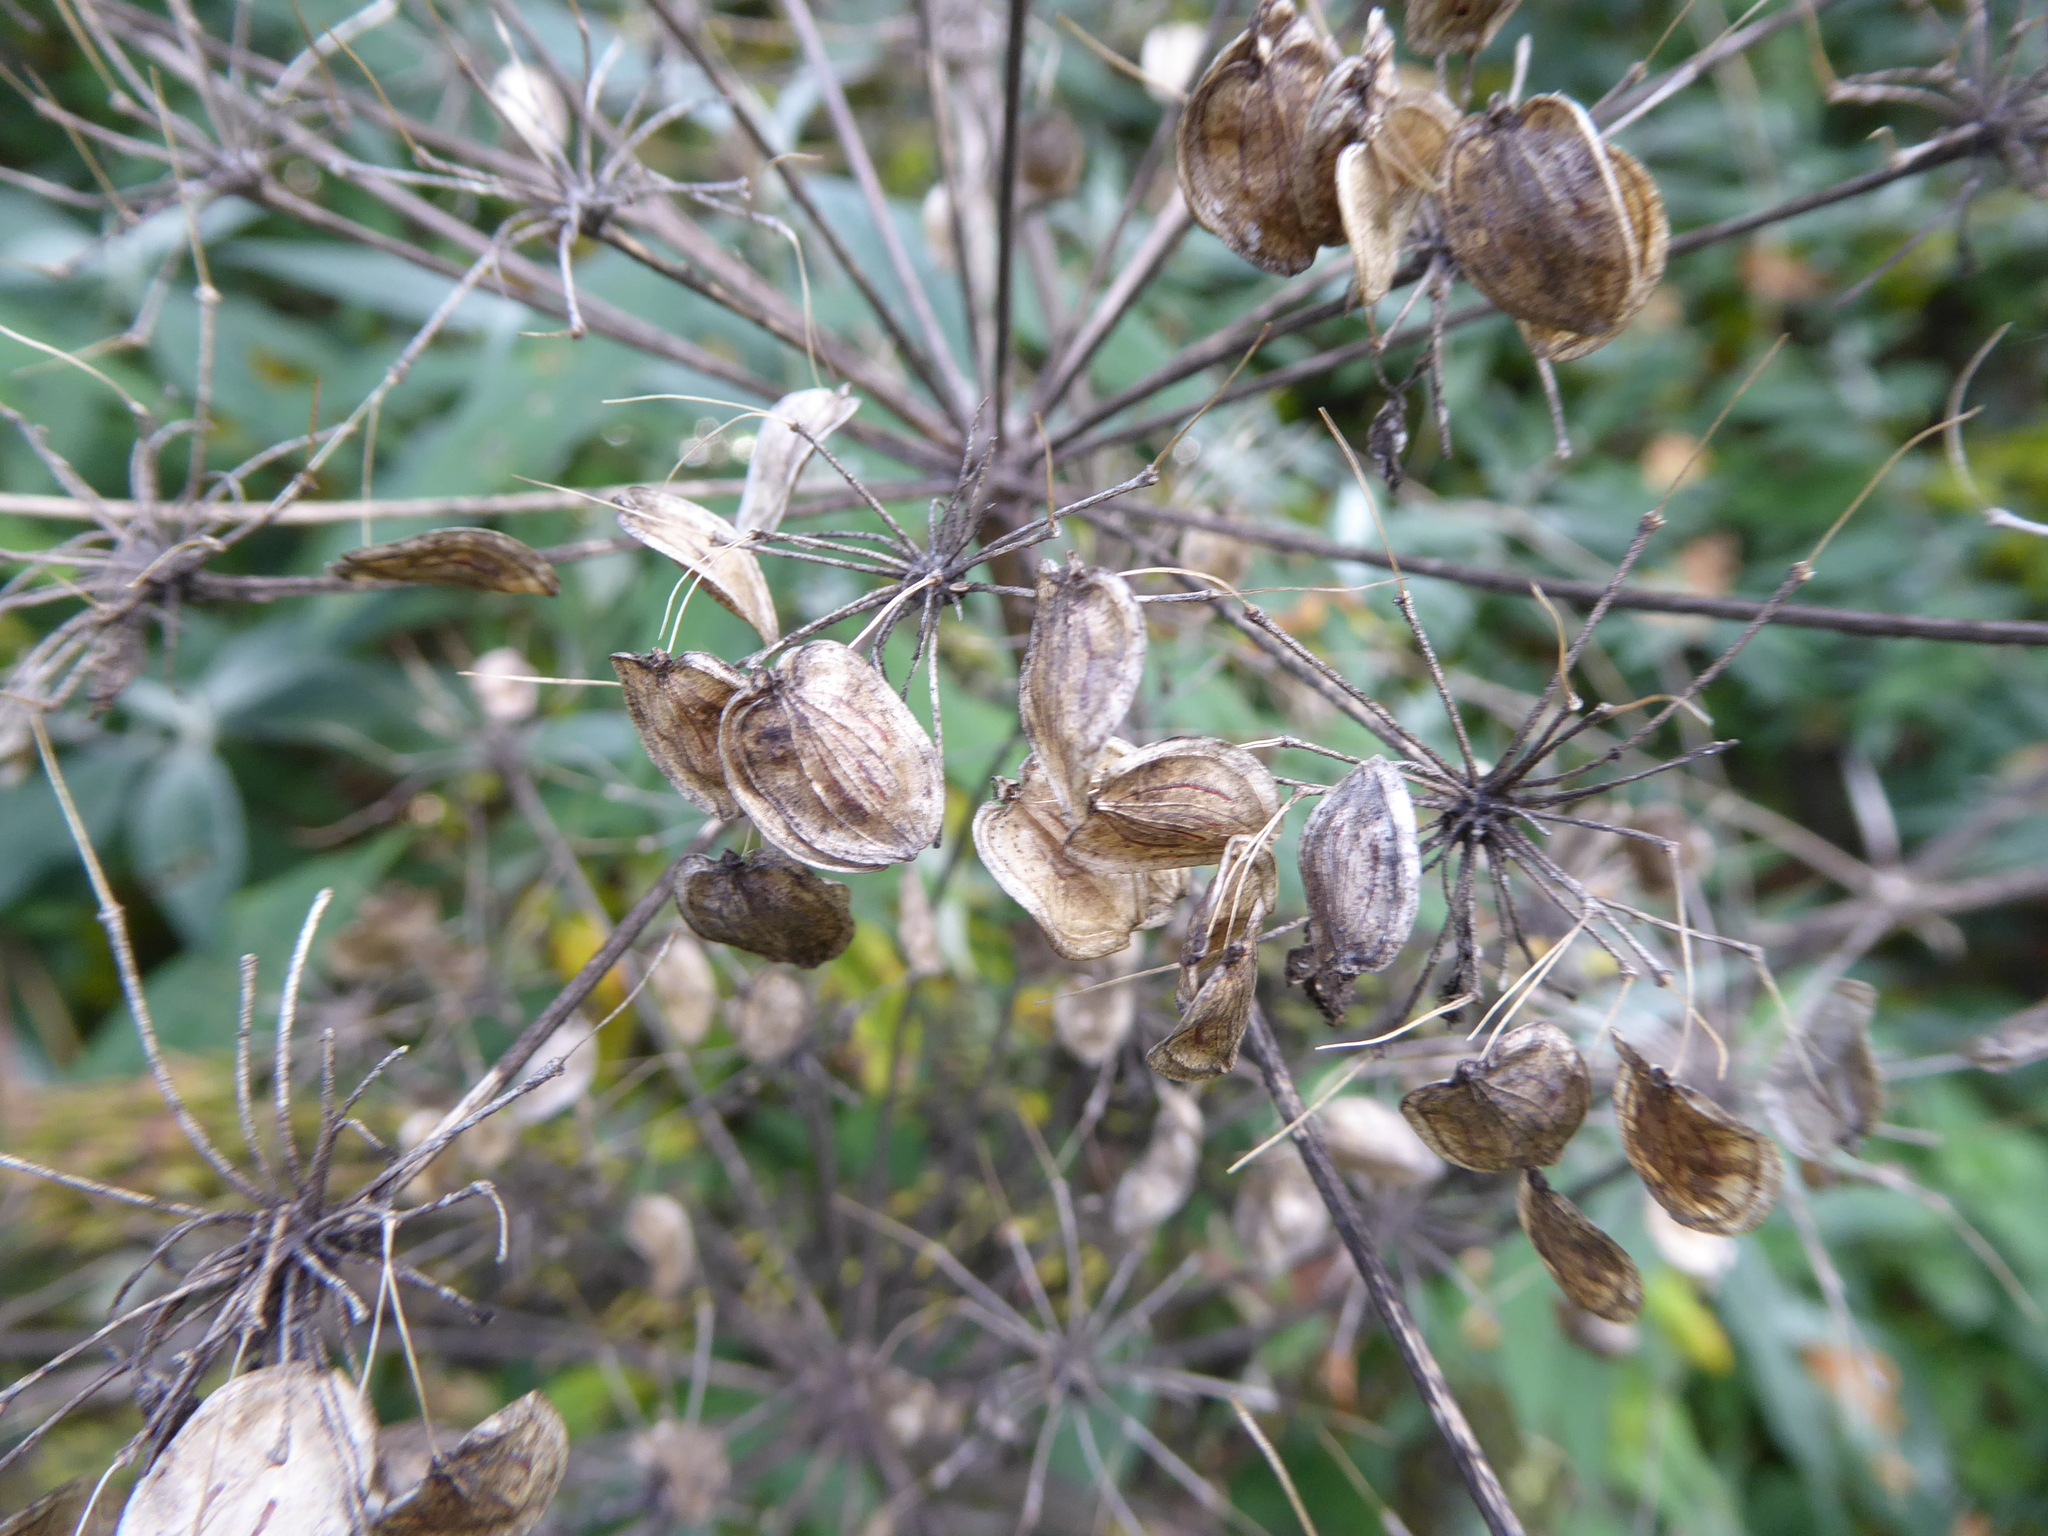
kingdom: Plantae
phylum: Tracheophyta
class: Magnoliopsida
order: Apiales
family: Apiaceae
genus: Heracleum
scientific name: Heracleum sphondylium
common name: Hogweed
